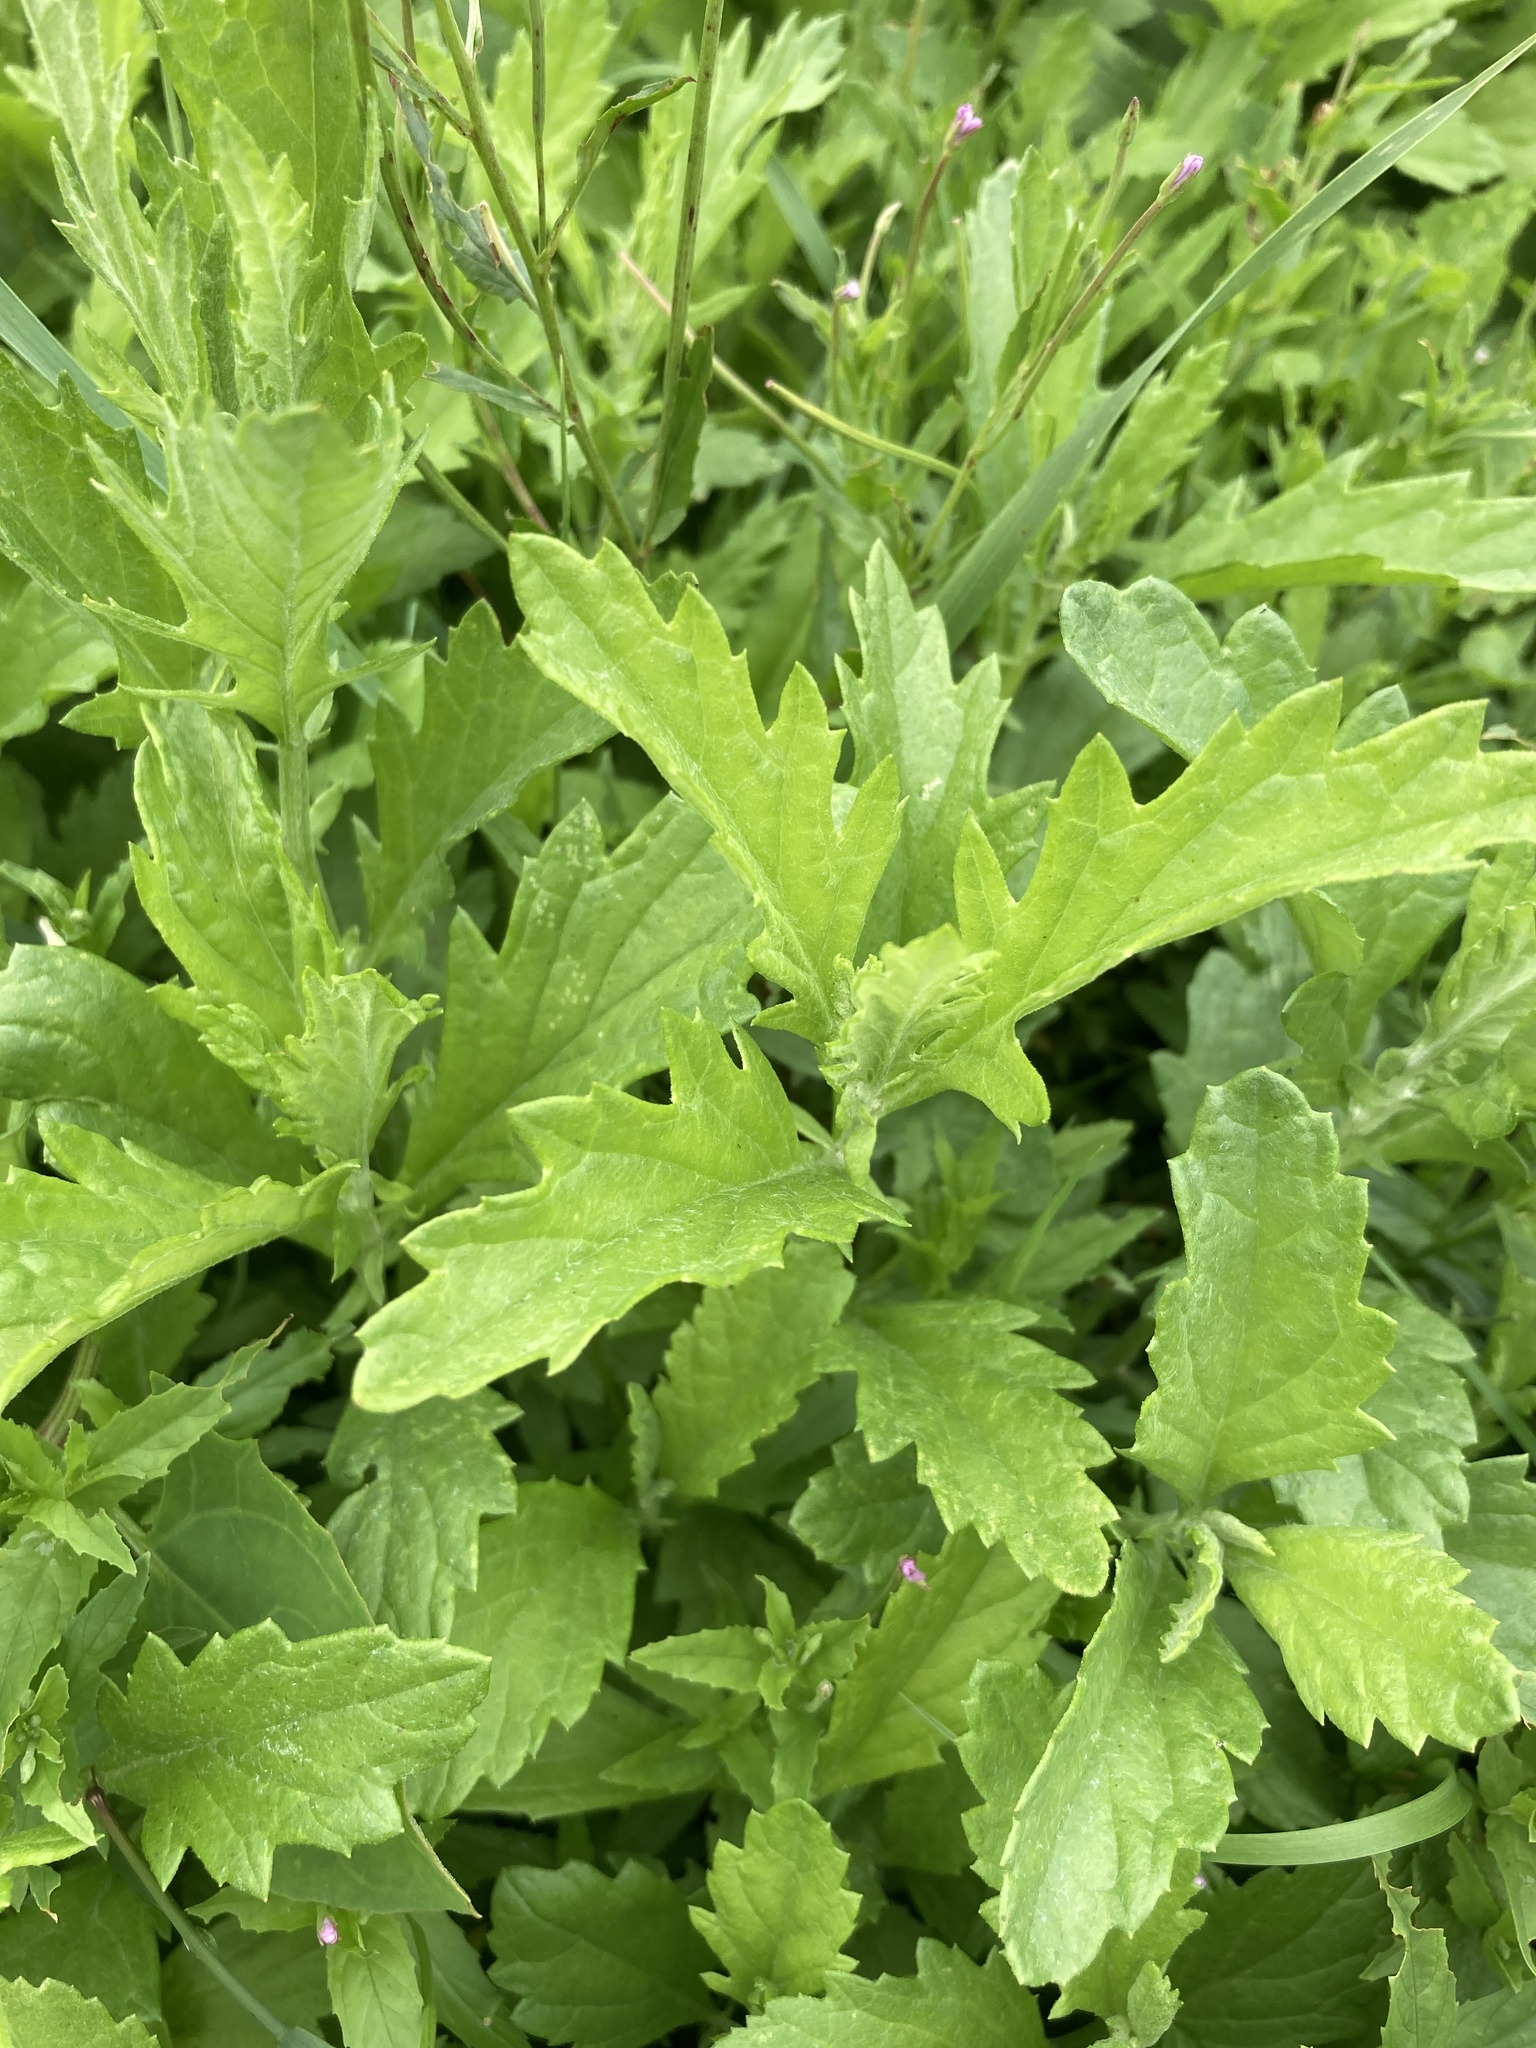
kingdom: Plantae
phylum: Tracheophyta
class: Magnoliopsida
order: Asterales
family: Asteraceae
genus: Jacobaea
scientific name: Jacobaea erucifolia
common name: Hoary ragwort
